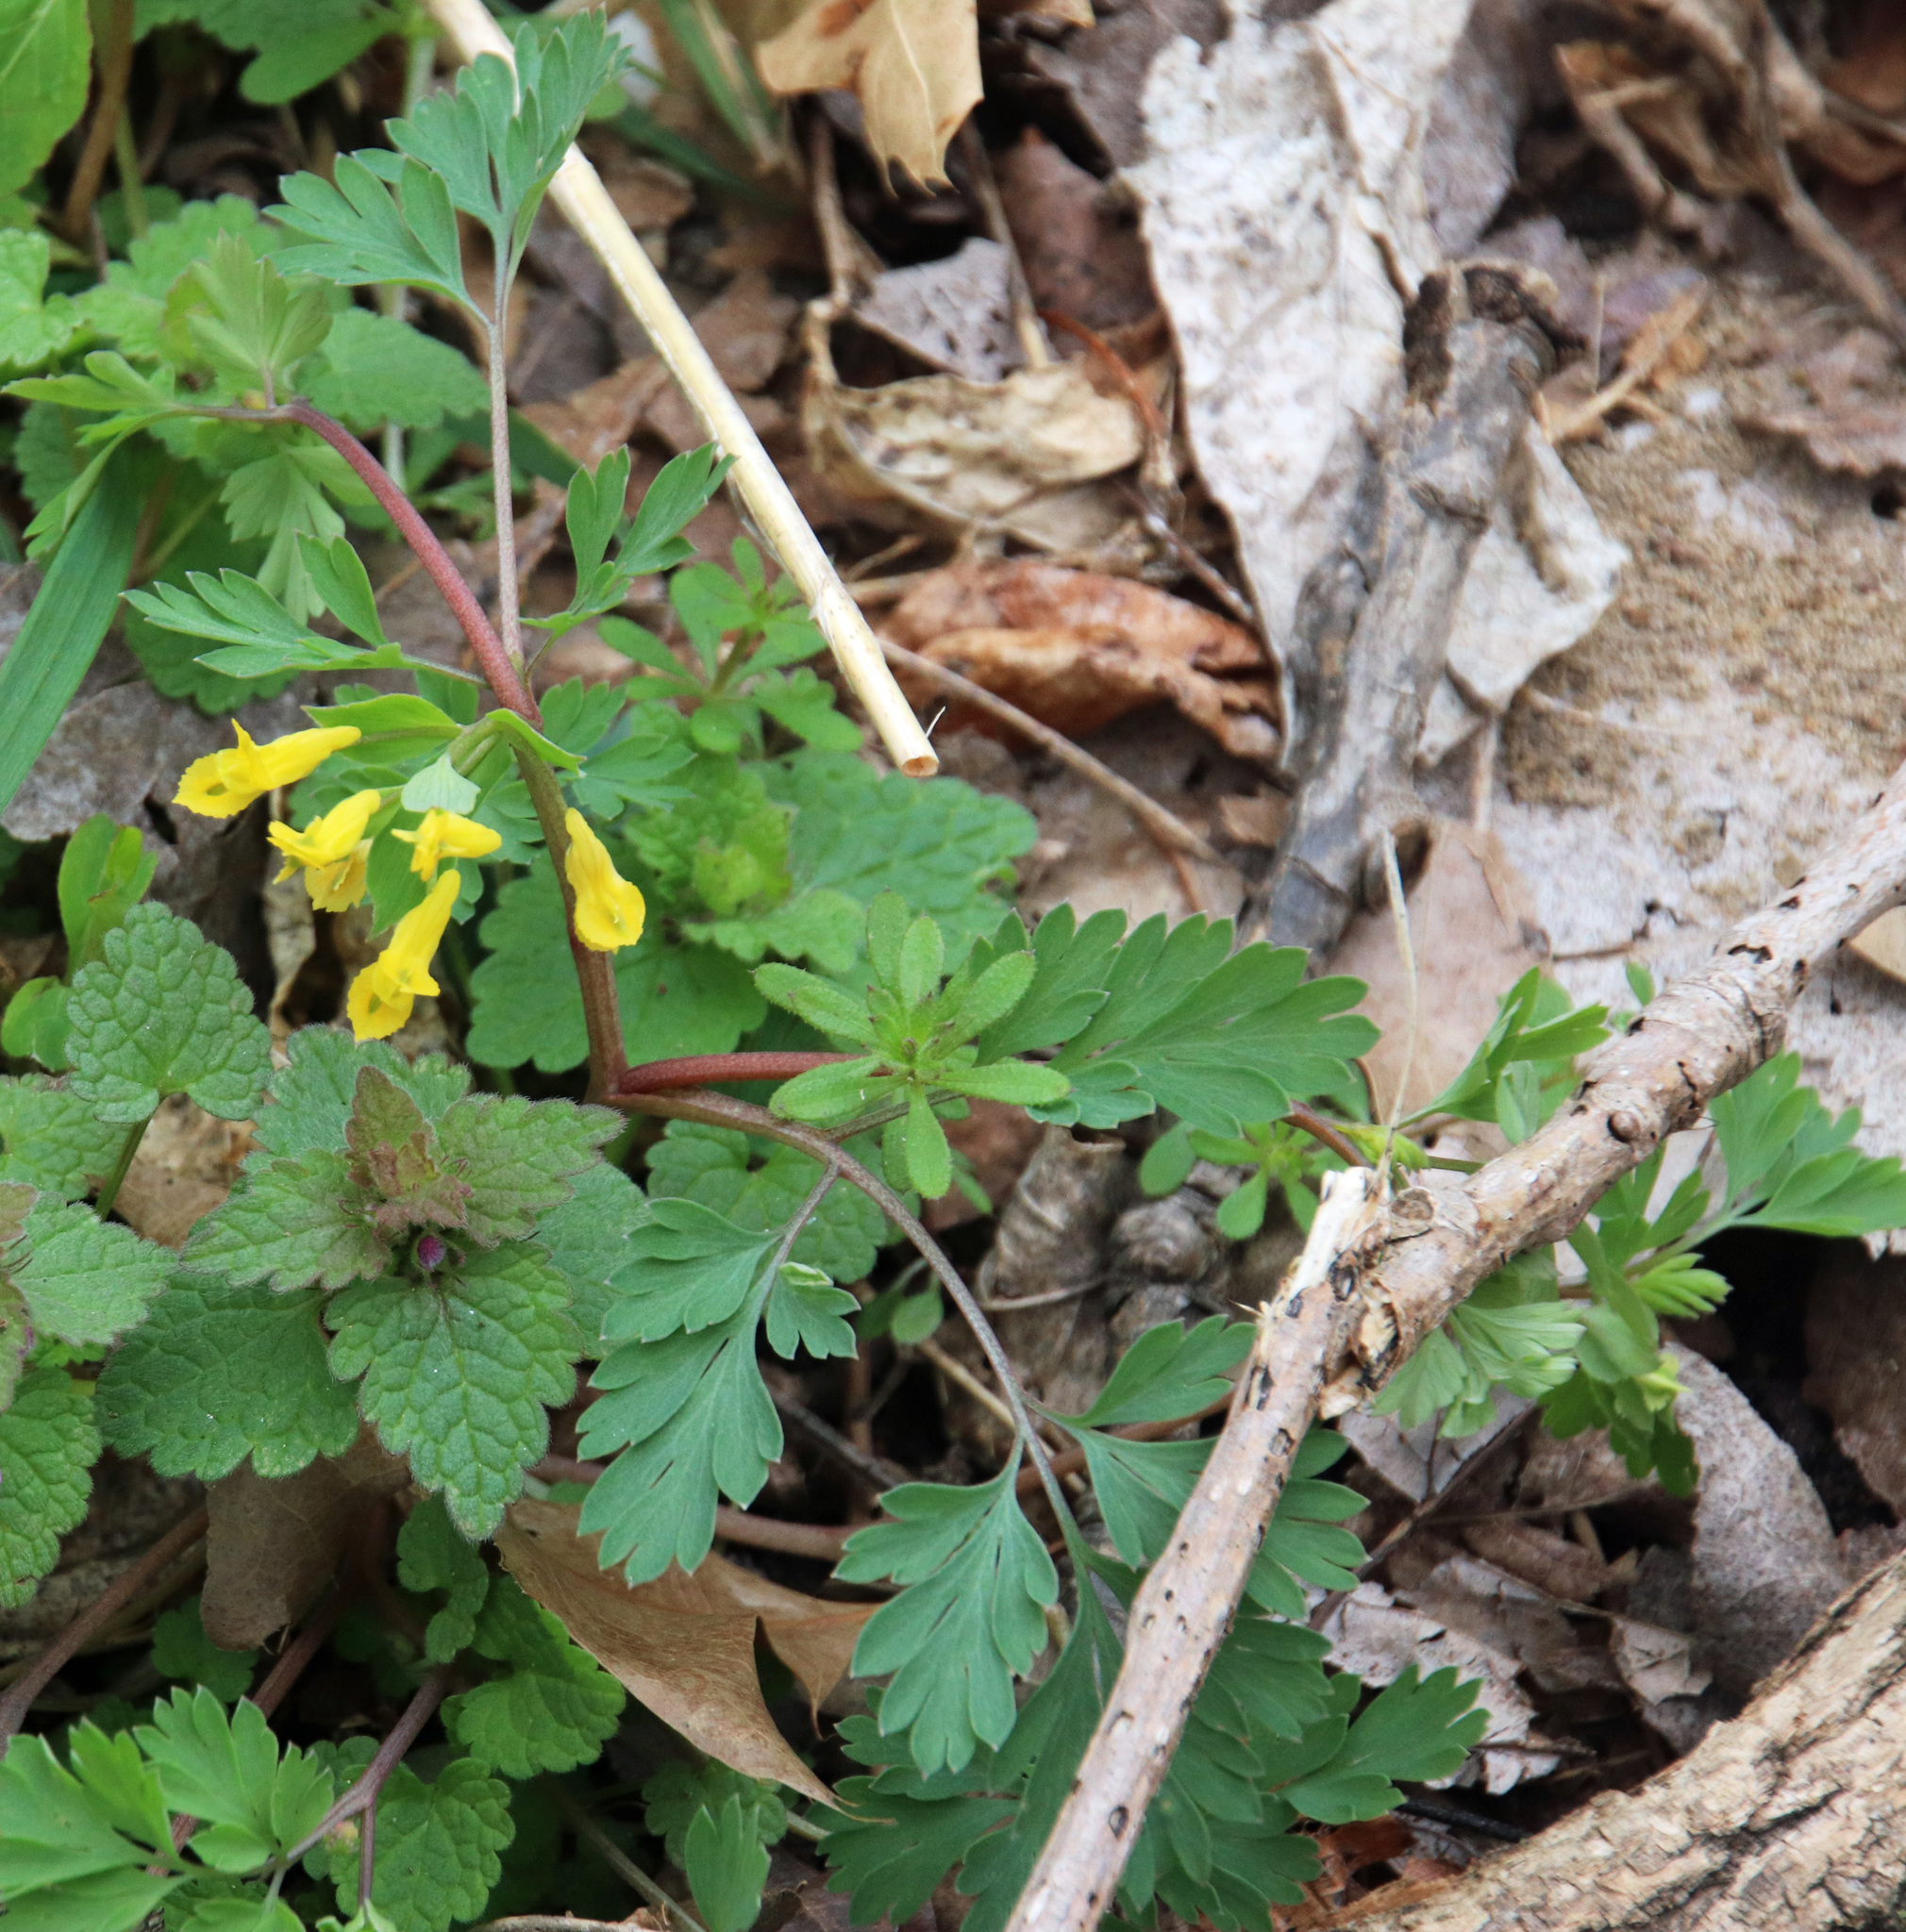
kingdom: Plantae
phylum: Tracheophyta
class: Magnoliopsida
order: Ranunculales
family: Papaveraceae
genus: Corydalis
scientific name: Corydalis flavula
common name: Yellow corydalis
